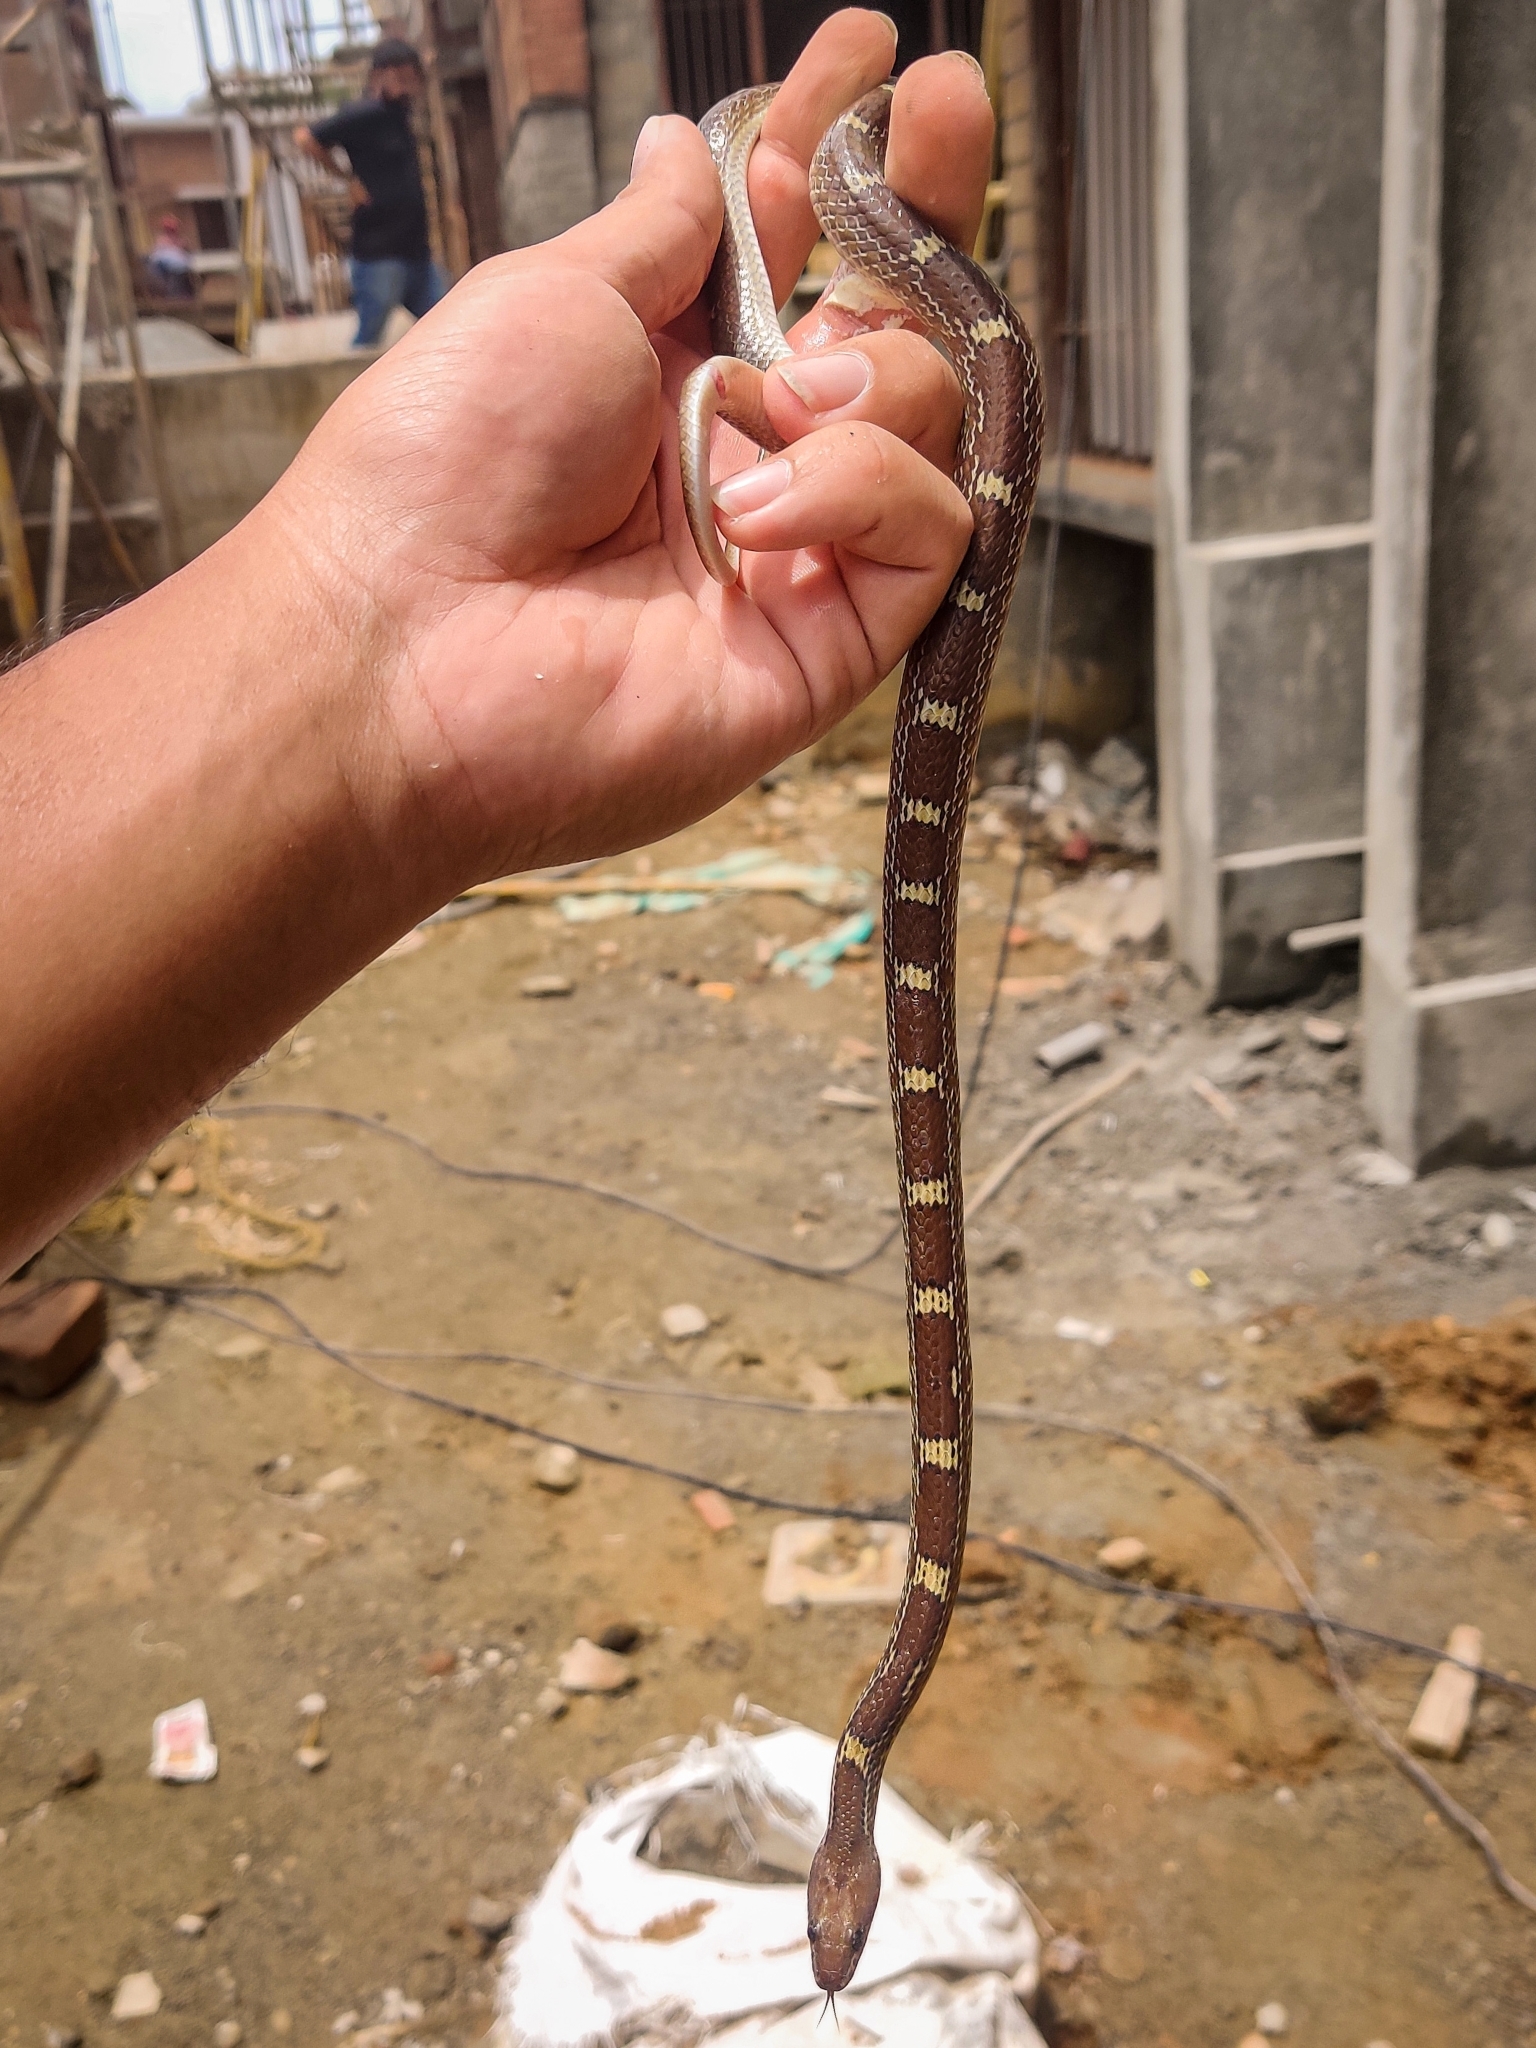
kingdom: Animalia
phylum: Chordata
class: Squamata
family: Colubridae
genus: Lycodon
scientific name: Lycodon fasciolatus
